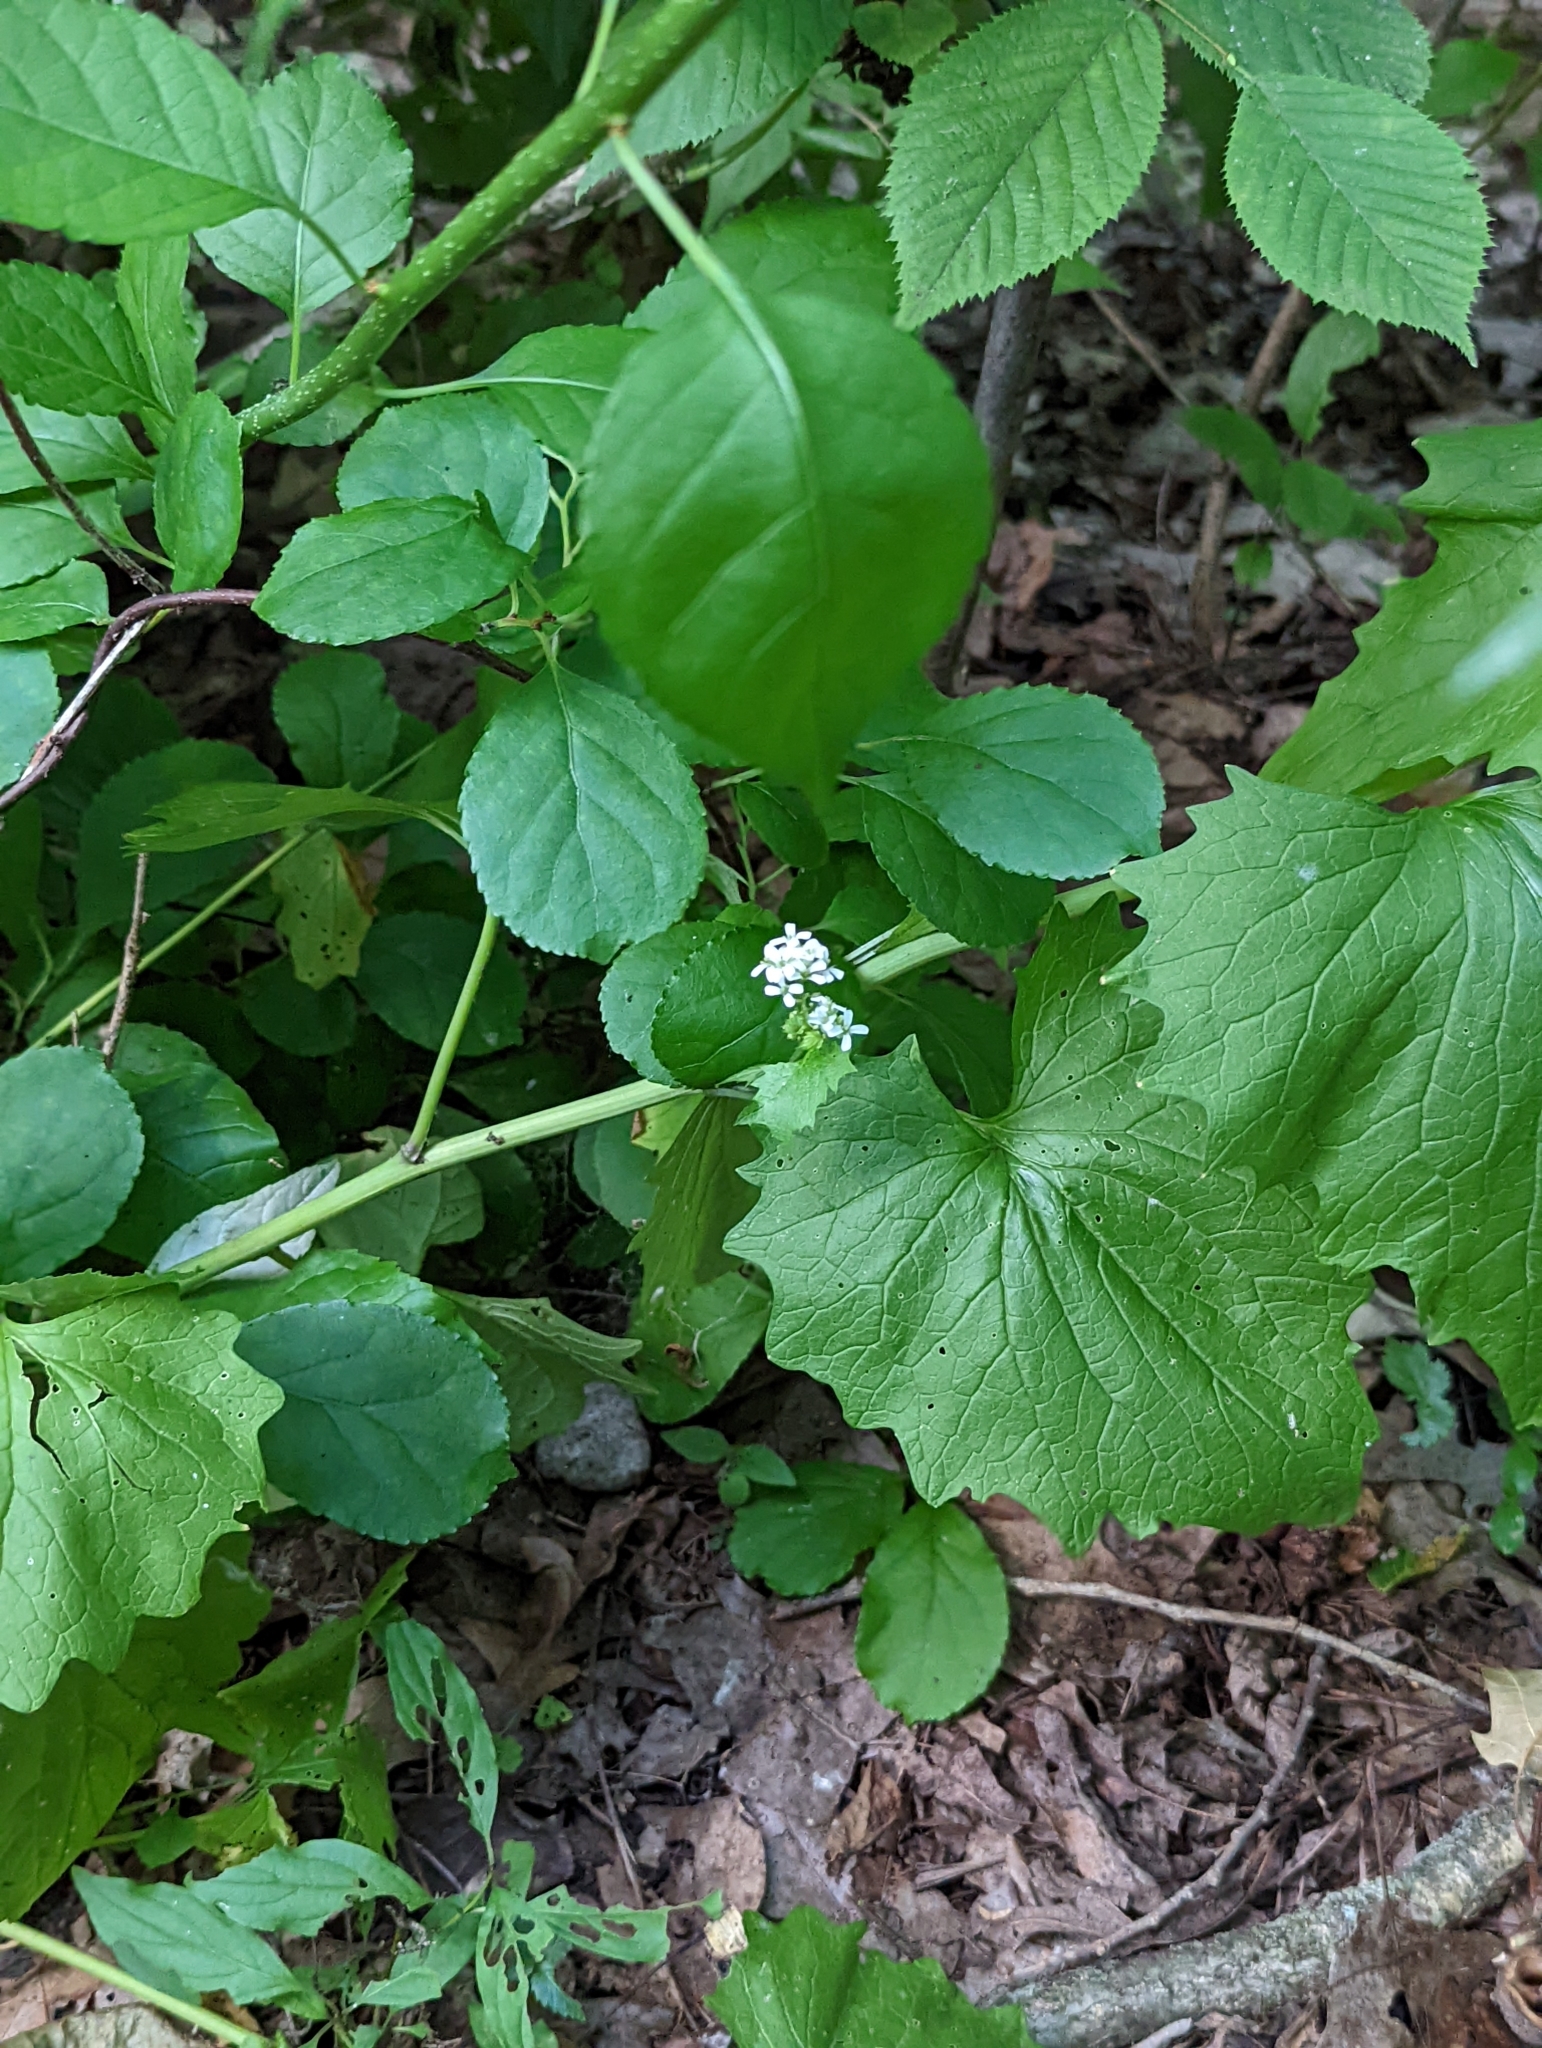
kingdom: Plantae
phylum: Tracheophyta
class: Magnoliopsida
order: Brassicales
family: Brassicaceae
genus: Alliaria
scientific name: Alliaria petiolata
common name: Garlic mustard
